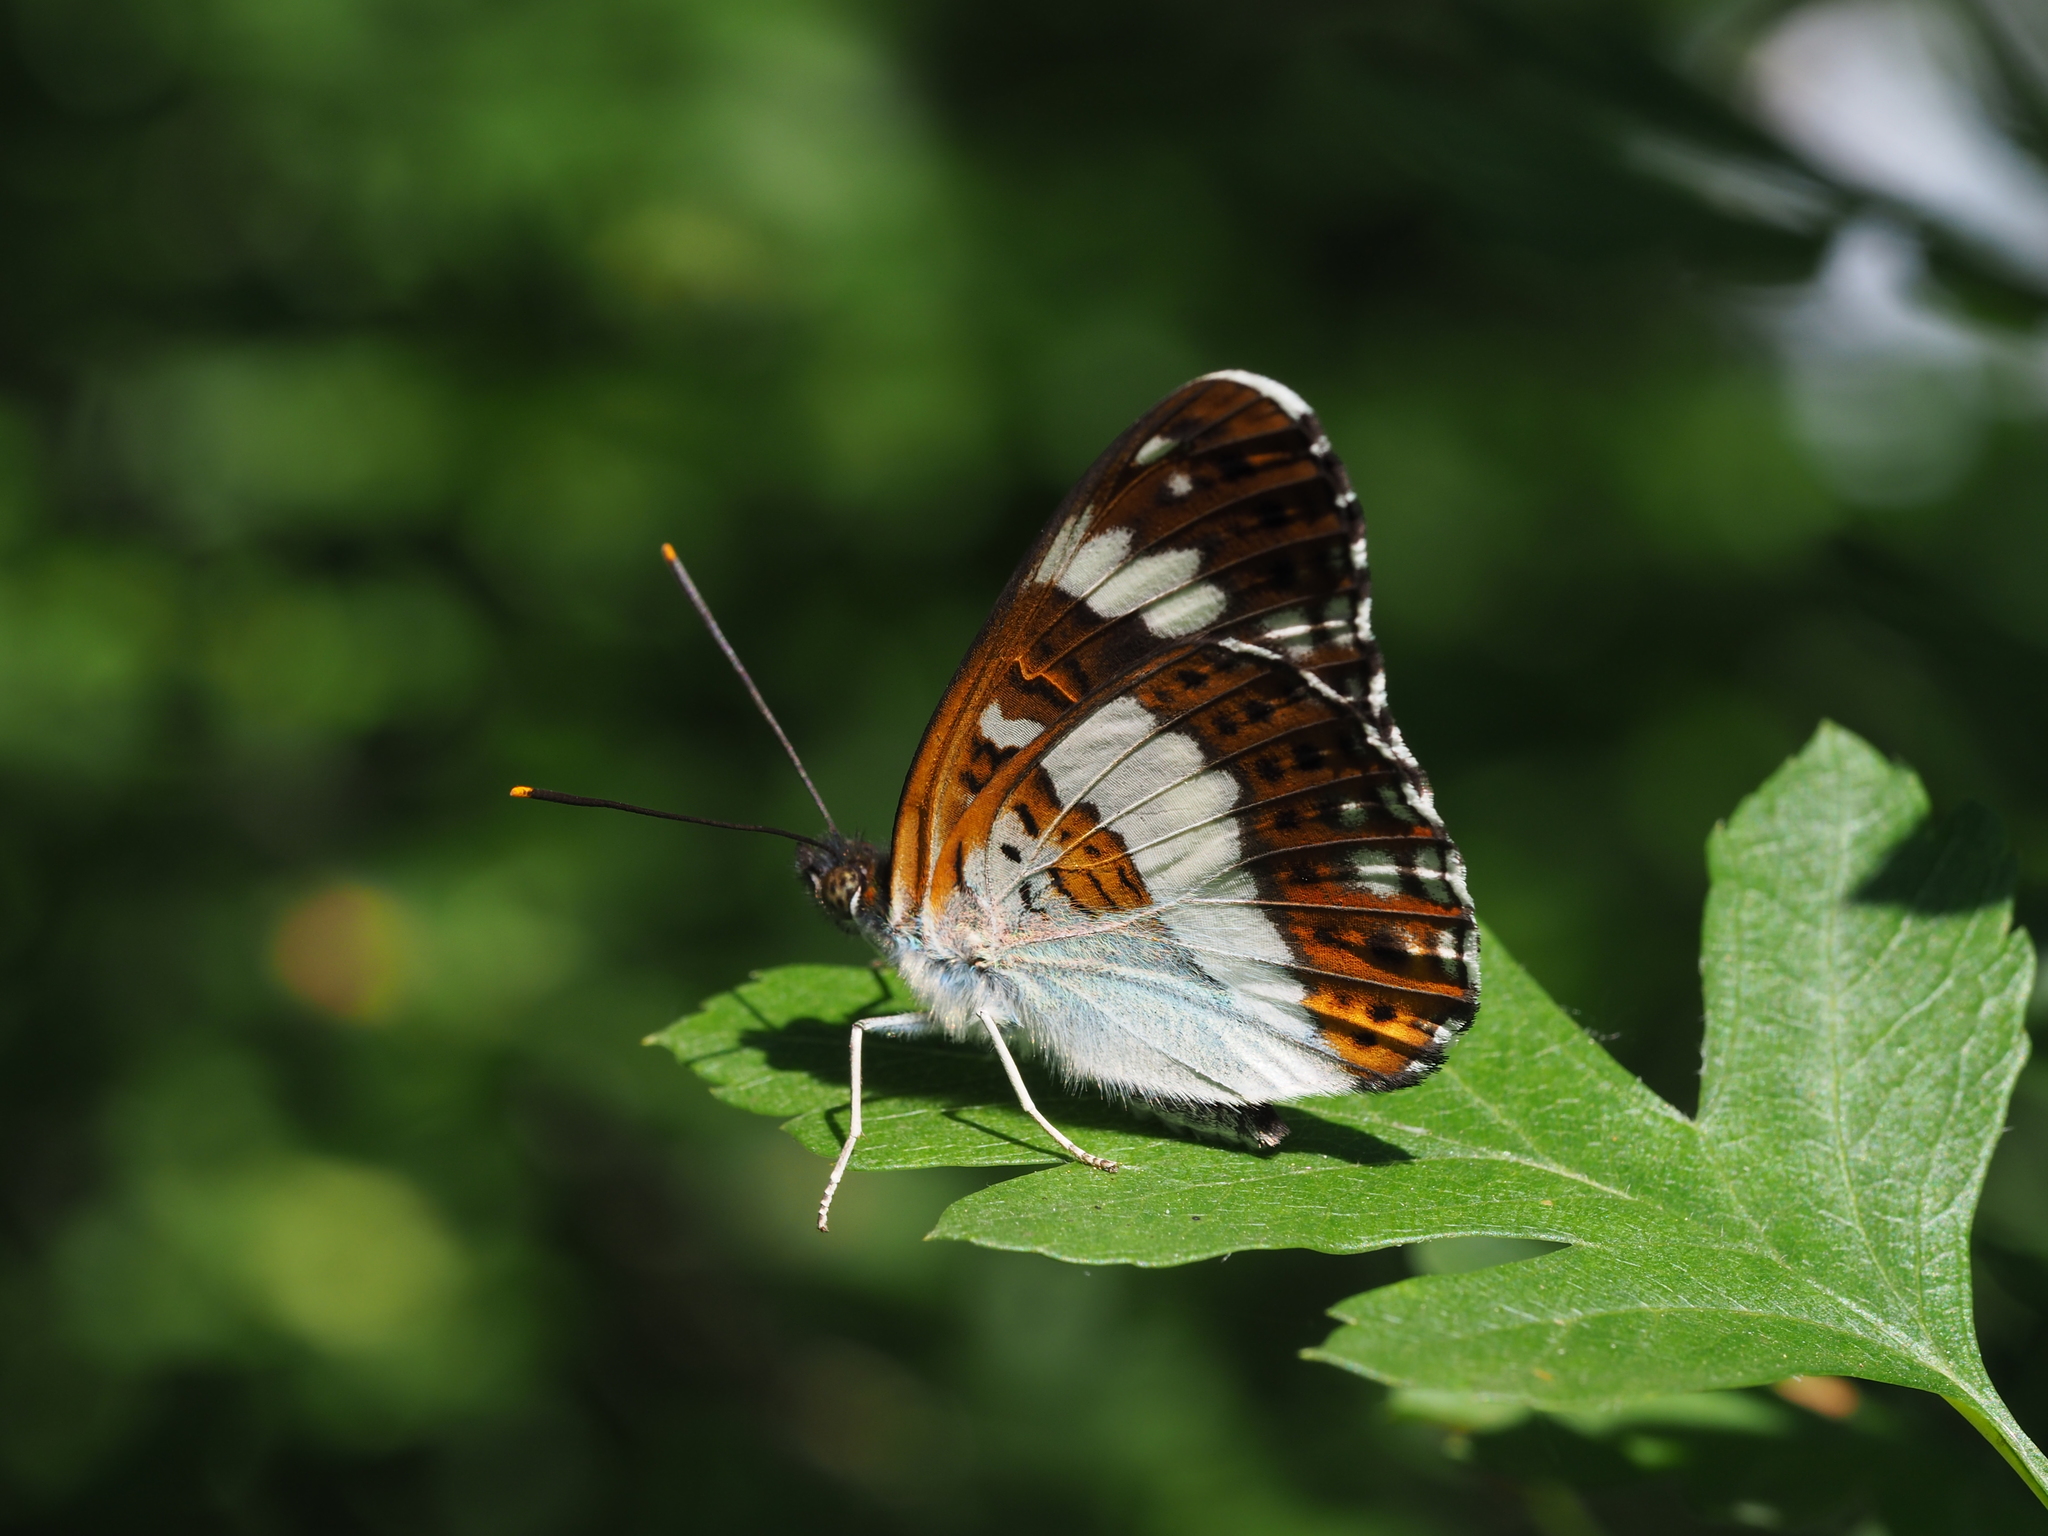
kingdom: Animalia
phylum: Arthropoda
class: Insecta
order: Lepidoptera
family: Nymphalidae
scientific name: Nymphalidae
